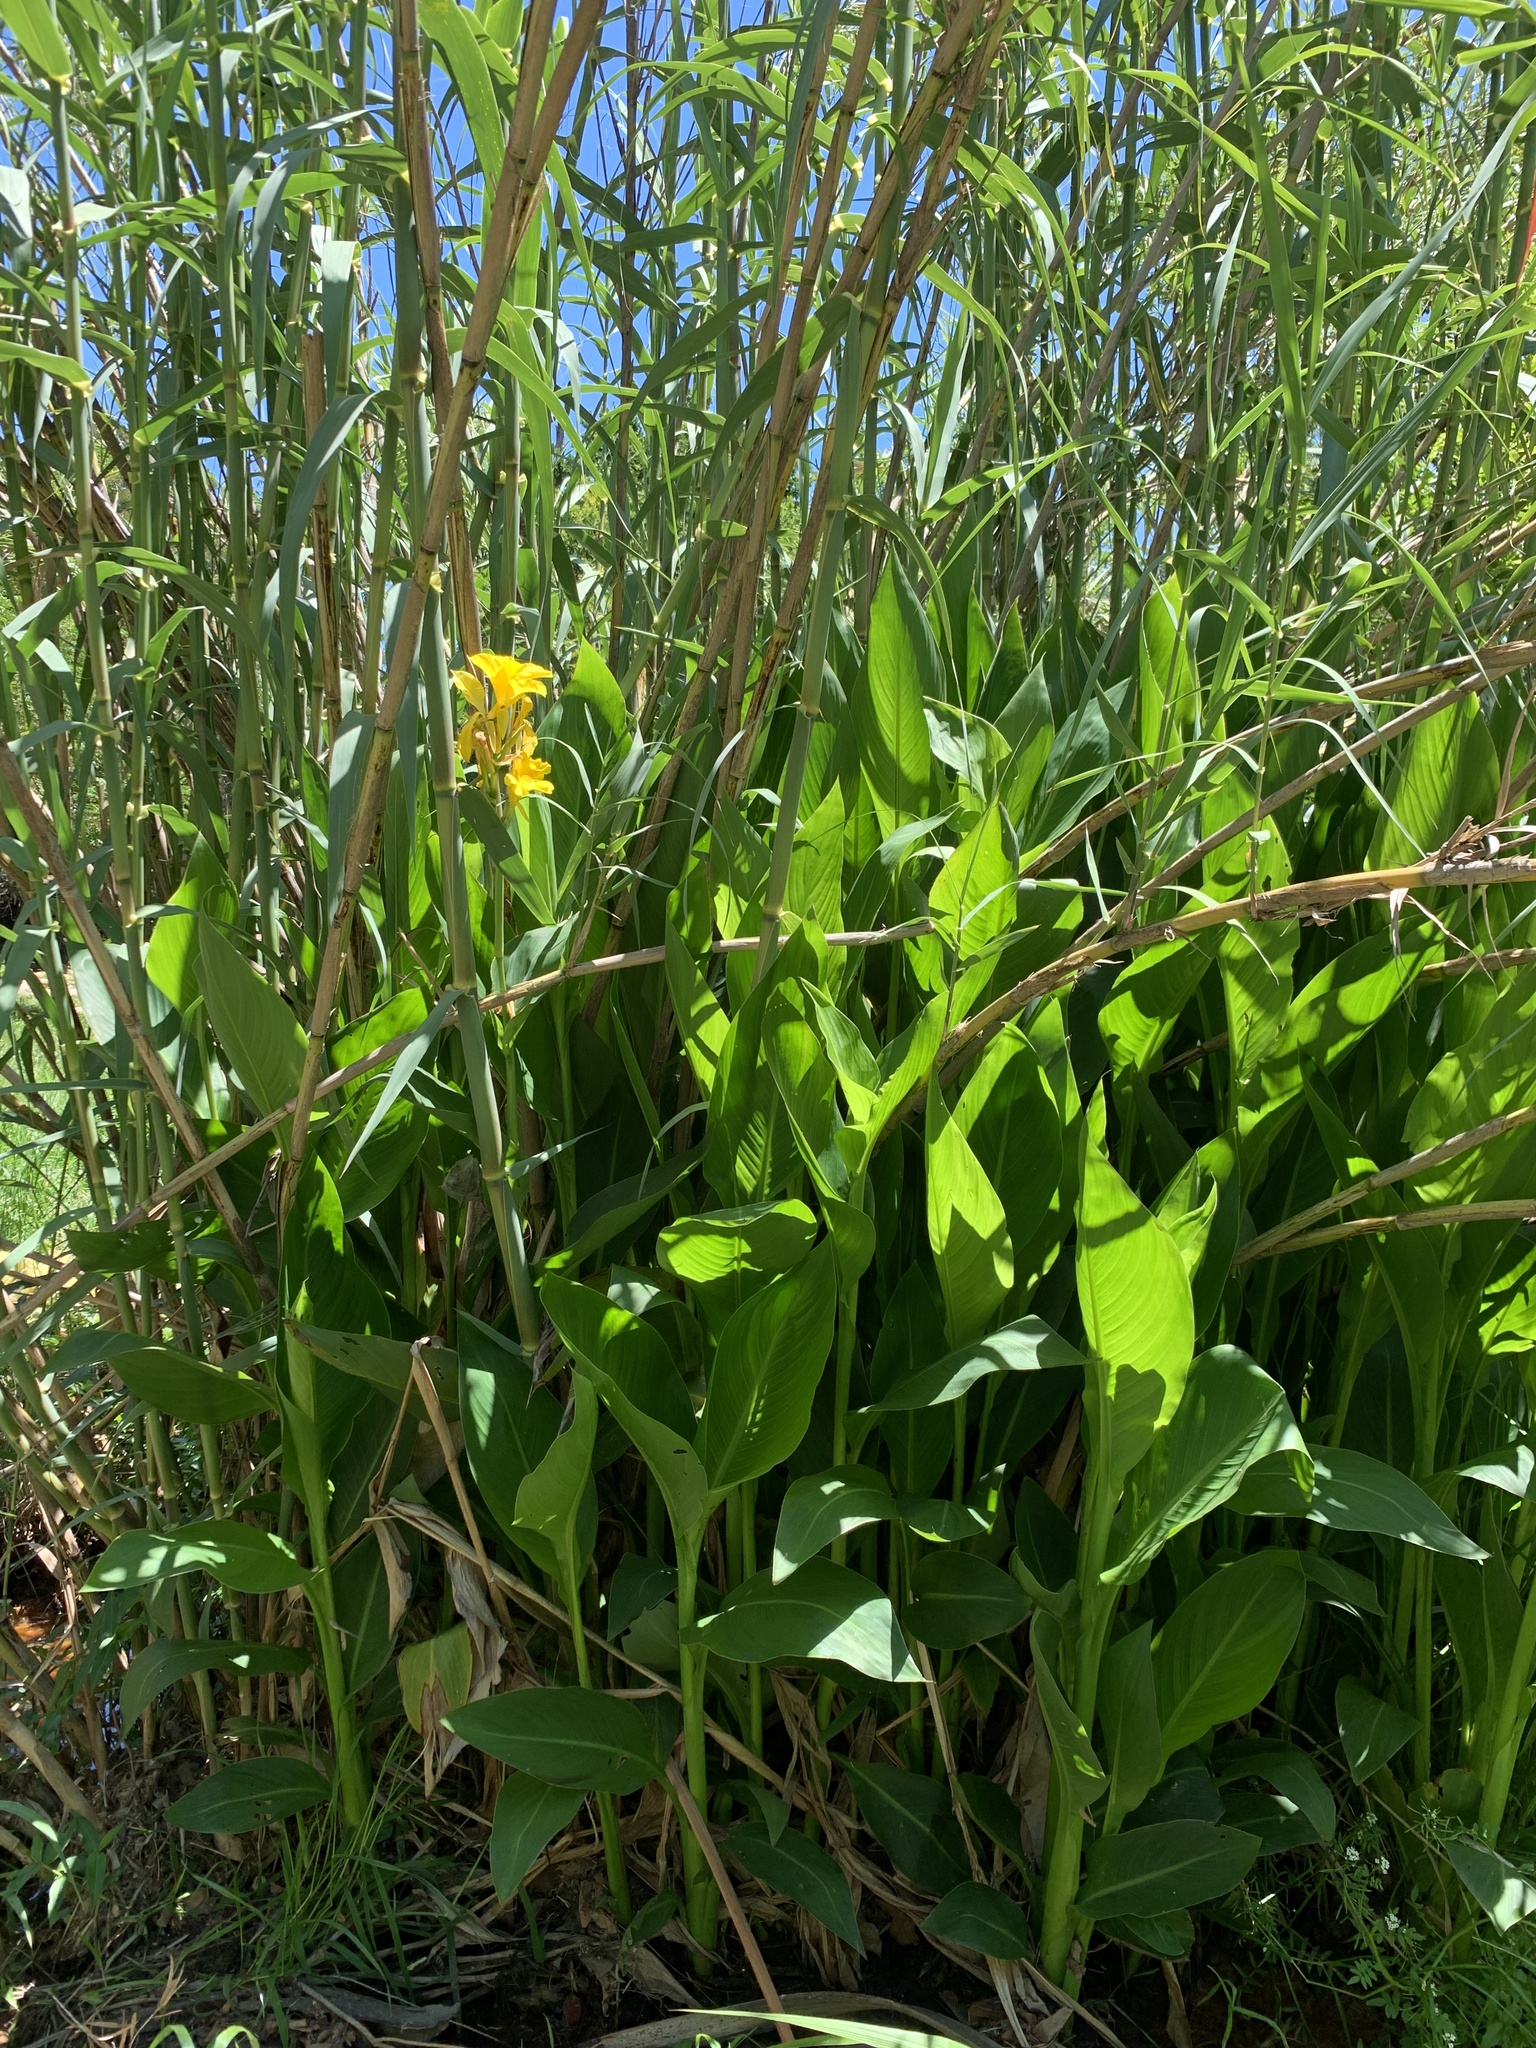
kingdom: Plantae
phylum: Tracheophyta
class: Liliopsida
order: Zingiberales
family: Cannaceae
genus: Canna
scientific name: Canna hybrida
